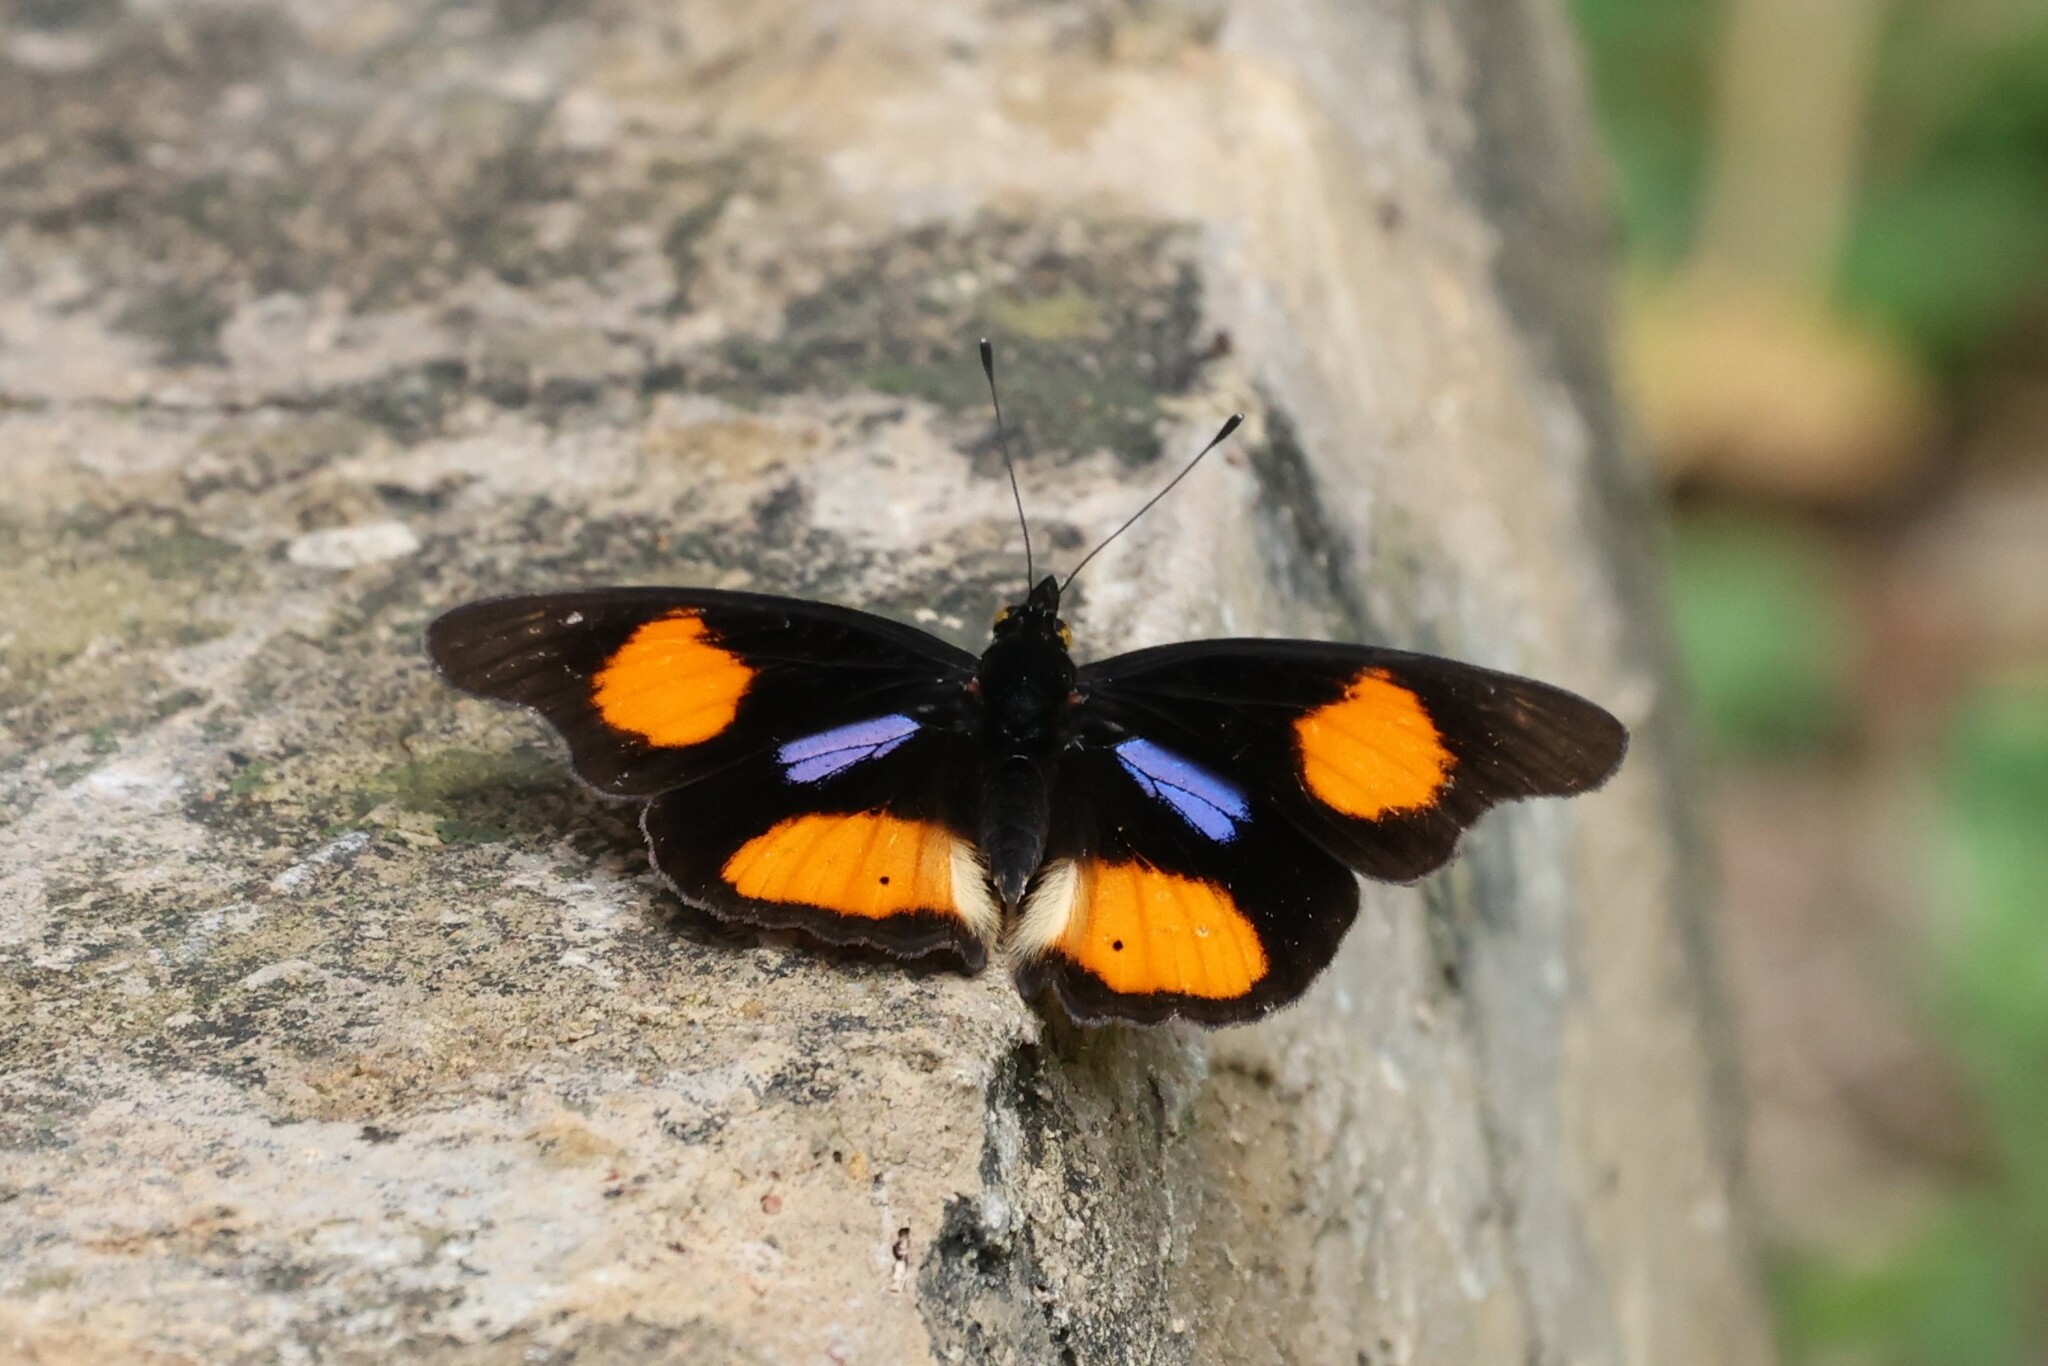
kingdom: Animalia
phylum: Arthropoda
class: Insecta
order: Lepidoptera
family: Nymphalidae
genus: Junonia
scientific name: Junonia westermanni
